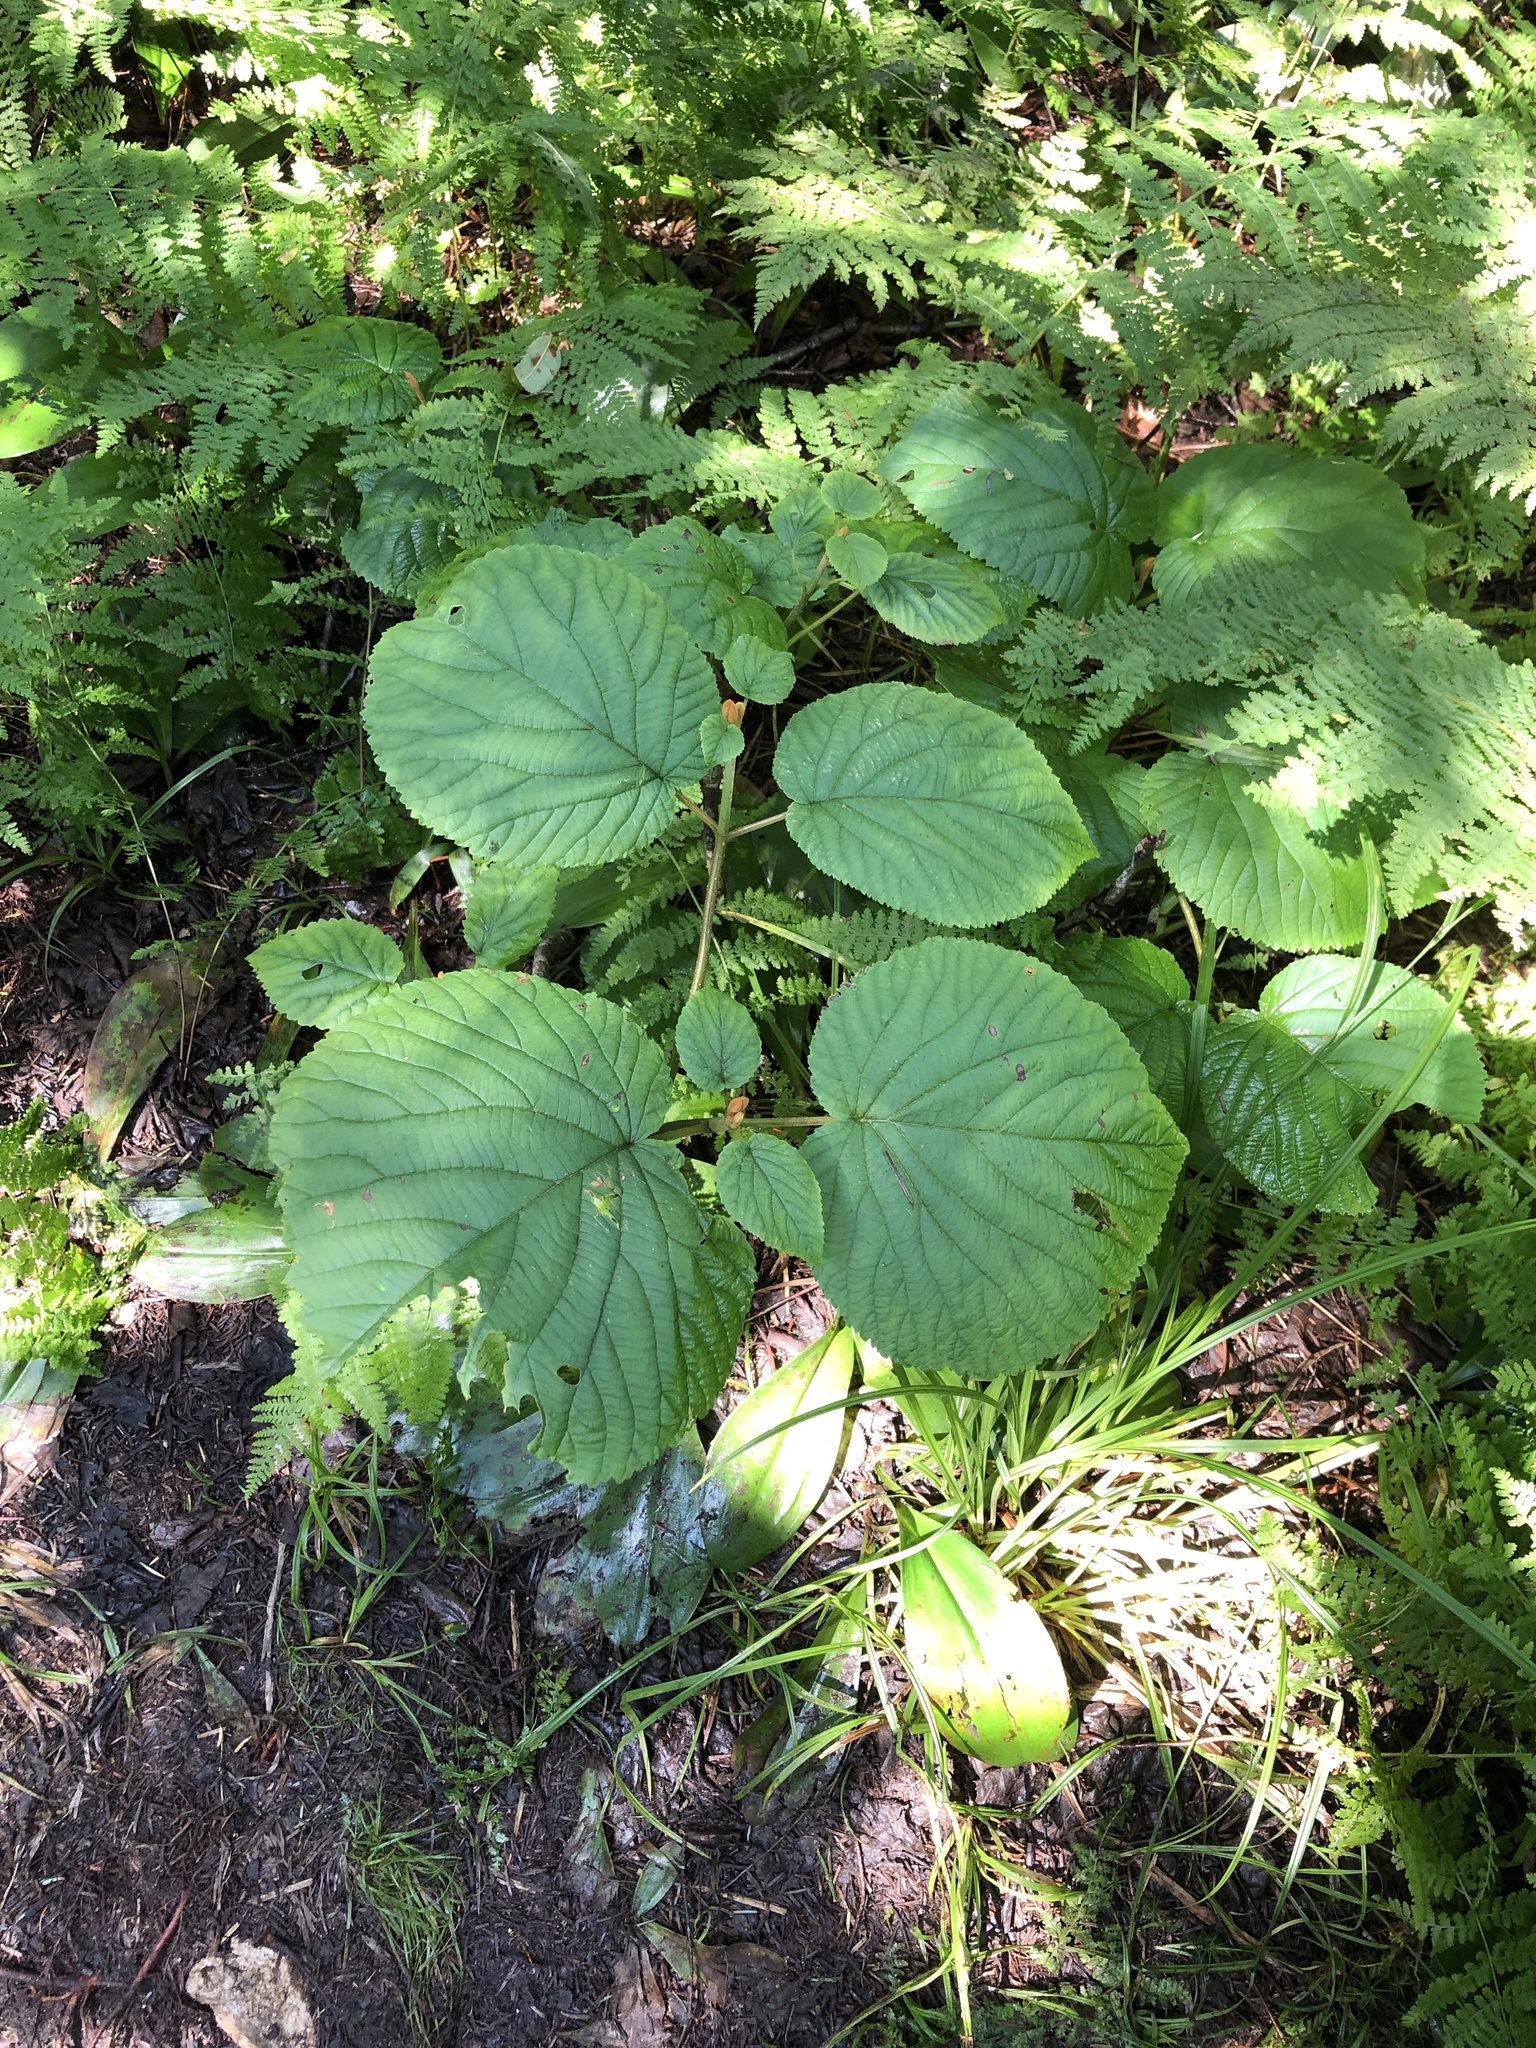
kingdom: Plantae
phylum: Tracheophyta
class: Magnoliopsida
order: Dipsacales
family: Viburnaceae
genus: Viburnum
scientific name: Viburnum lantanoides
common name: Hobblebush
